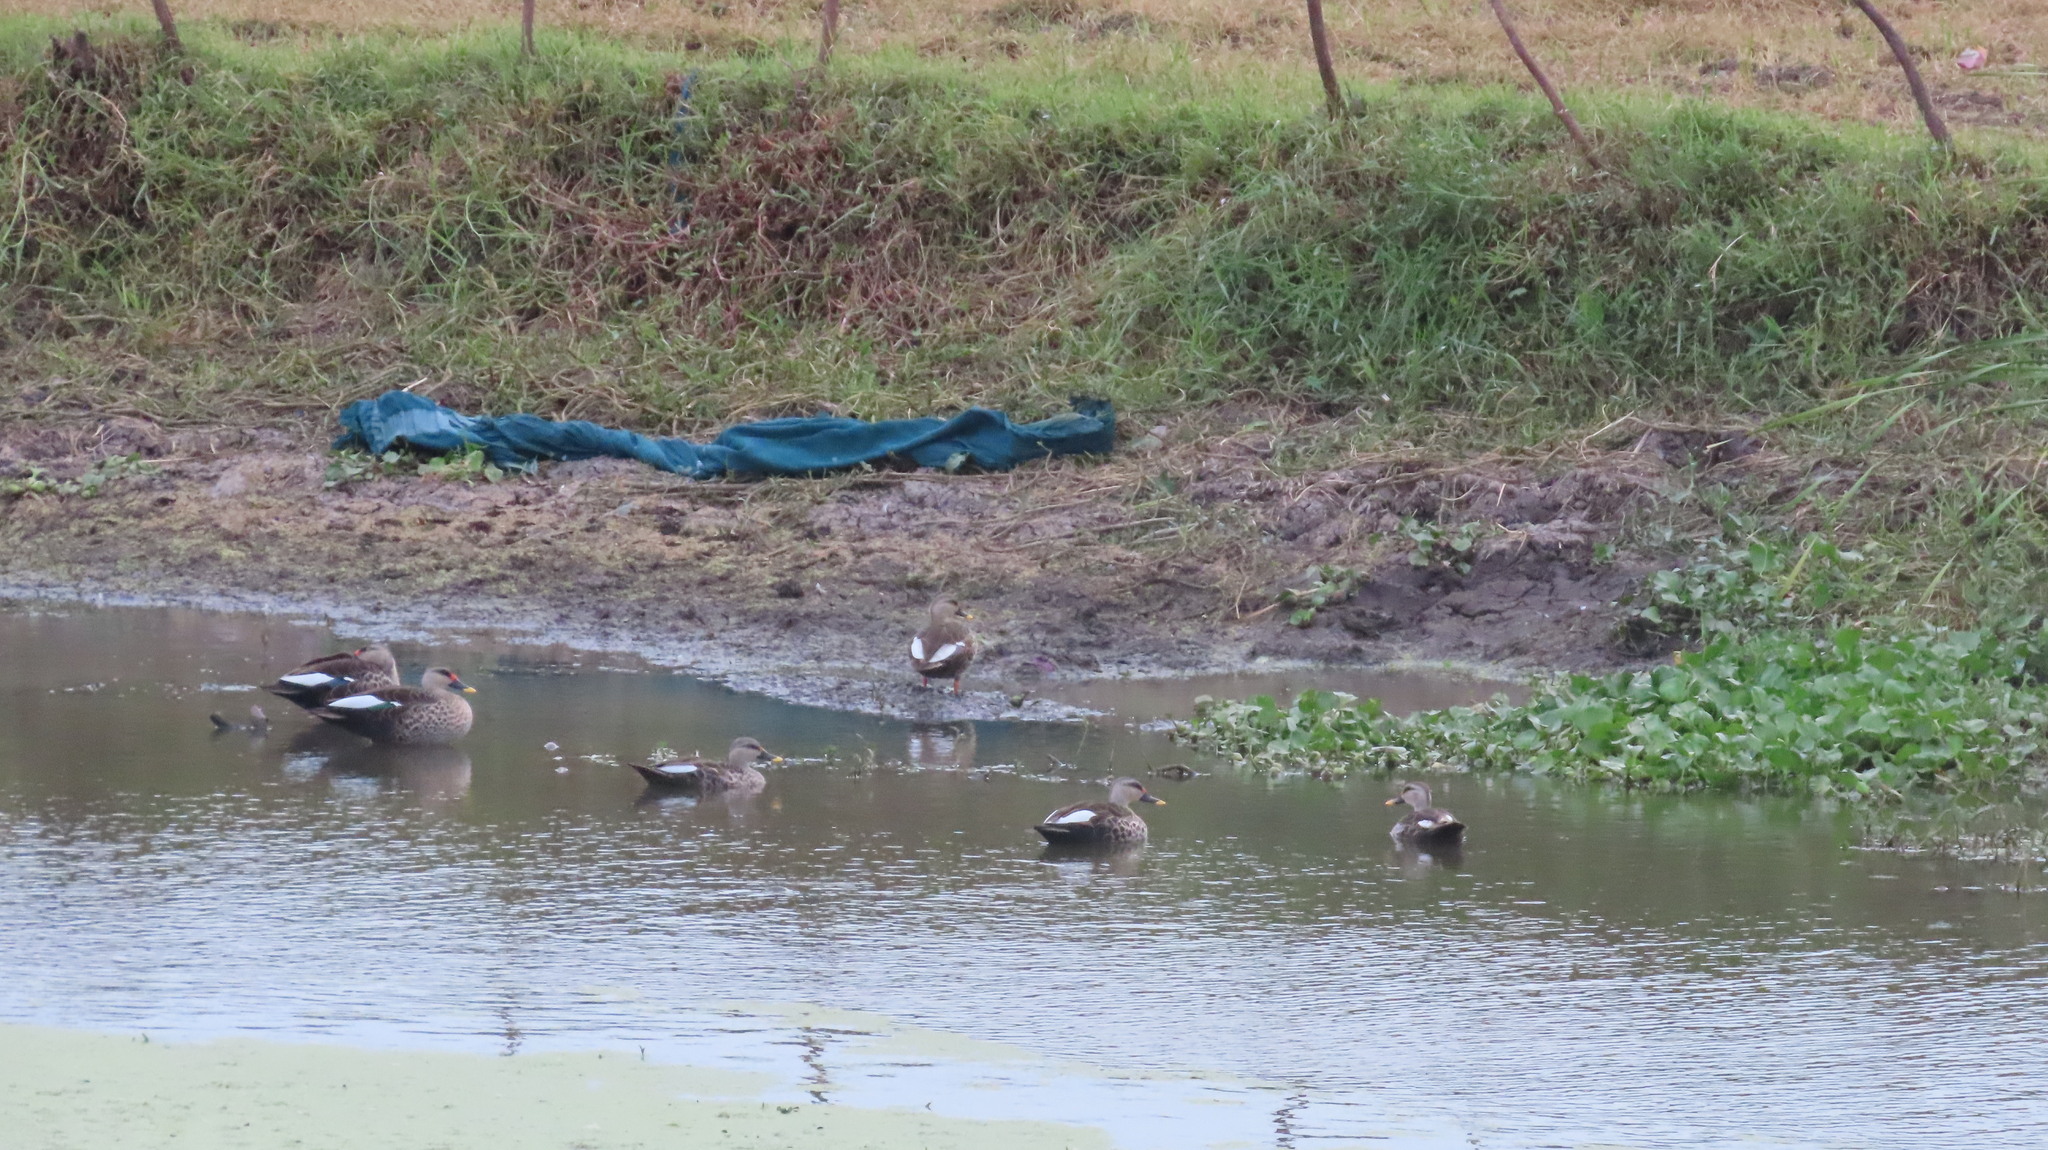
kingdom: Animalia
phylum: Chordata
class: Aves
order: Anseriformes
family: Anatidae
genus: Anas
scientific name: Anas poecilorhyncha
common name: Indian spot-billed duck
